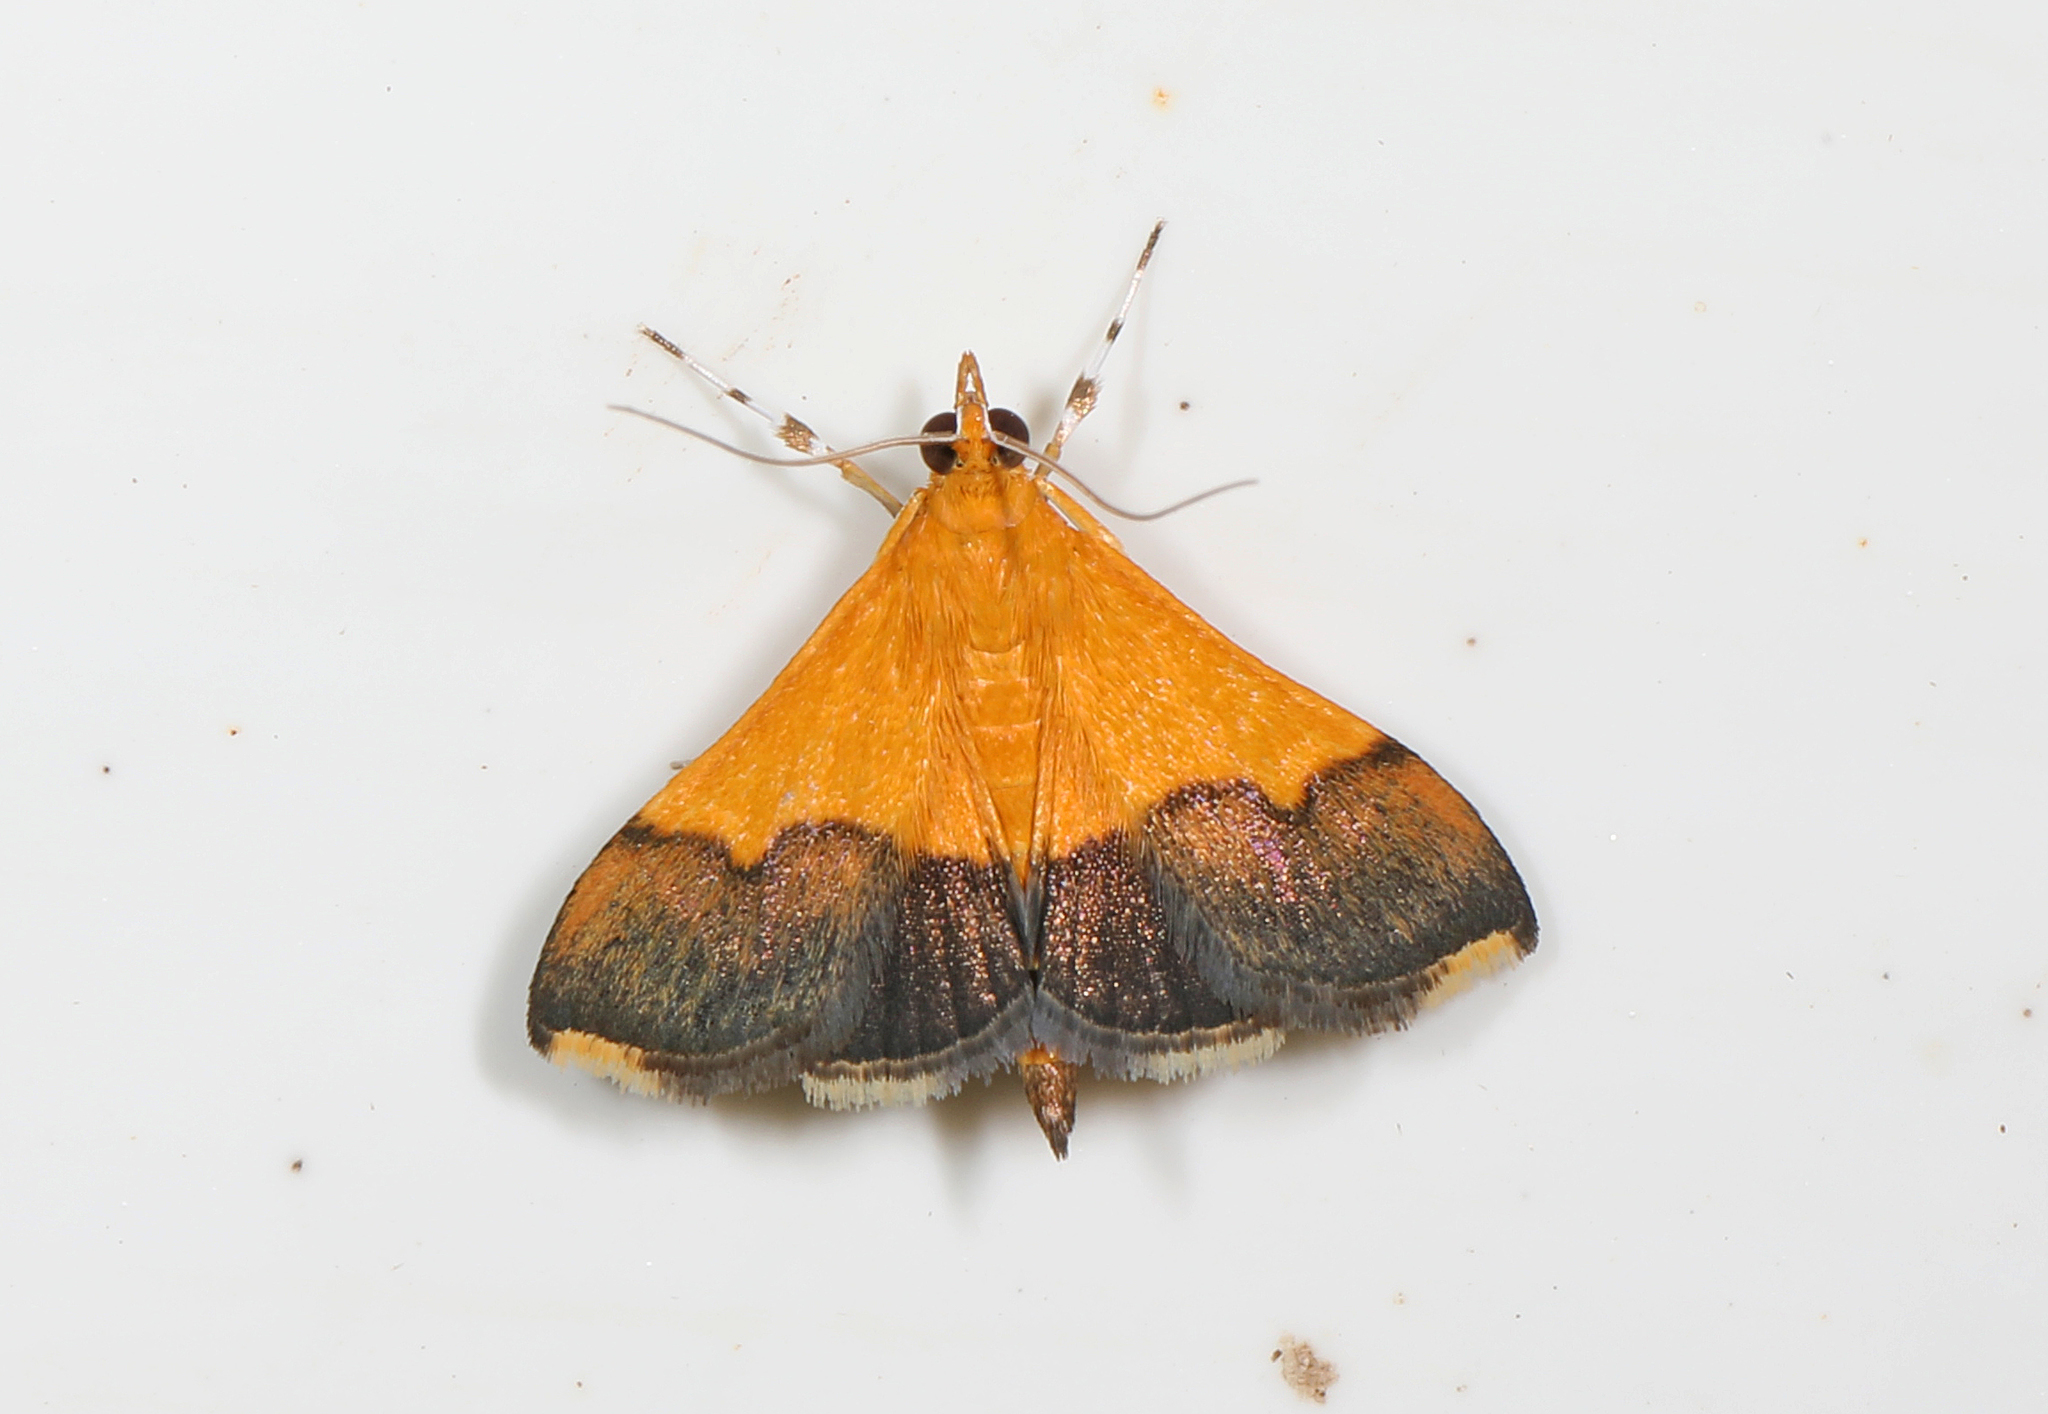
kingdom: Animalia
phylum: Arthropoda
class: Insecta
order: Lepidoptera
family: Crambidae
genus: Pyrausta
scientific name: Pyrausta augustalis
